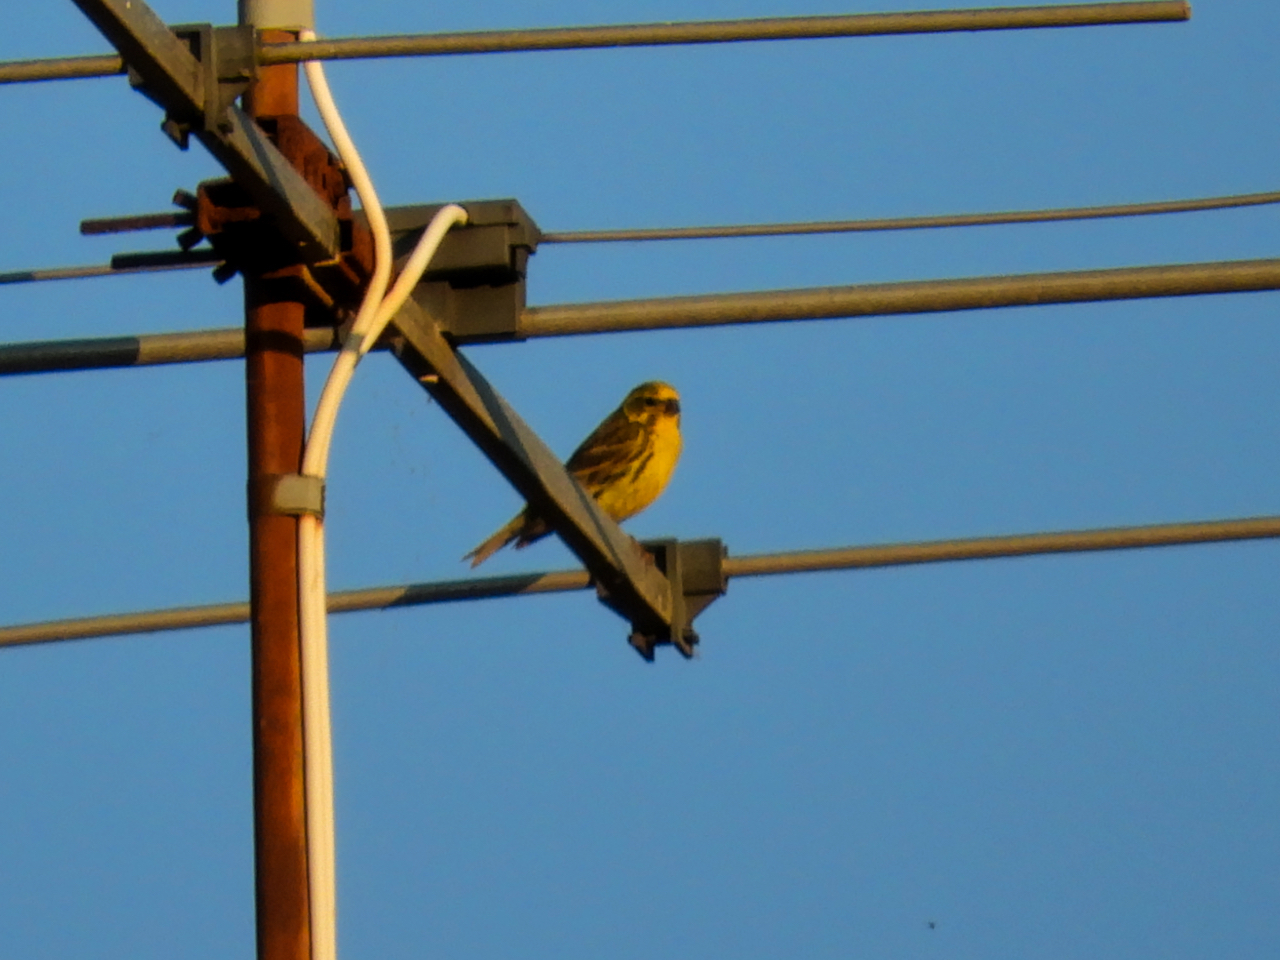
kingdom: Animalia
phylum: Chordata
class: Aves
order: Passeriformes
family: Fringillidae
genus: Serinus
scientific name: Serinus serinus
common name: European serin
